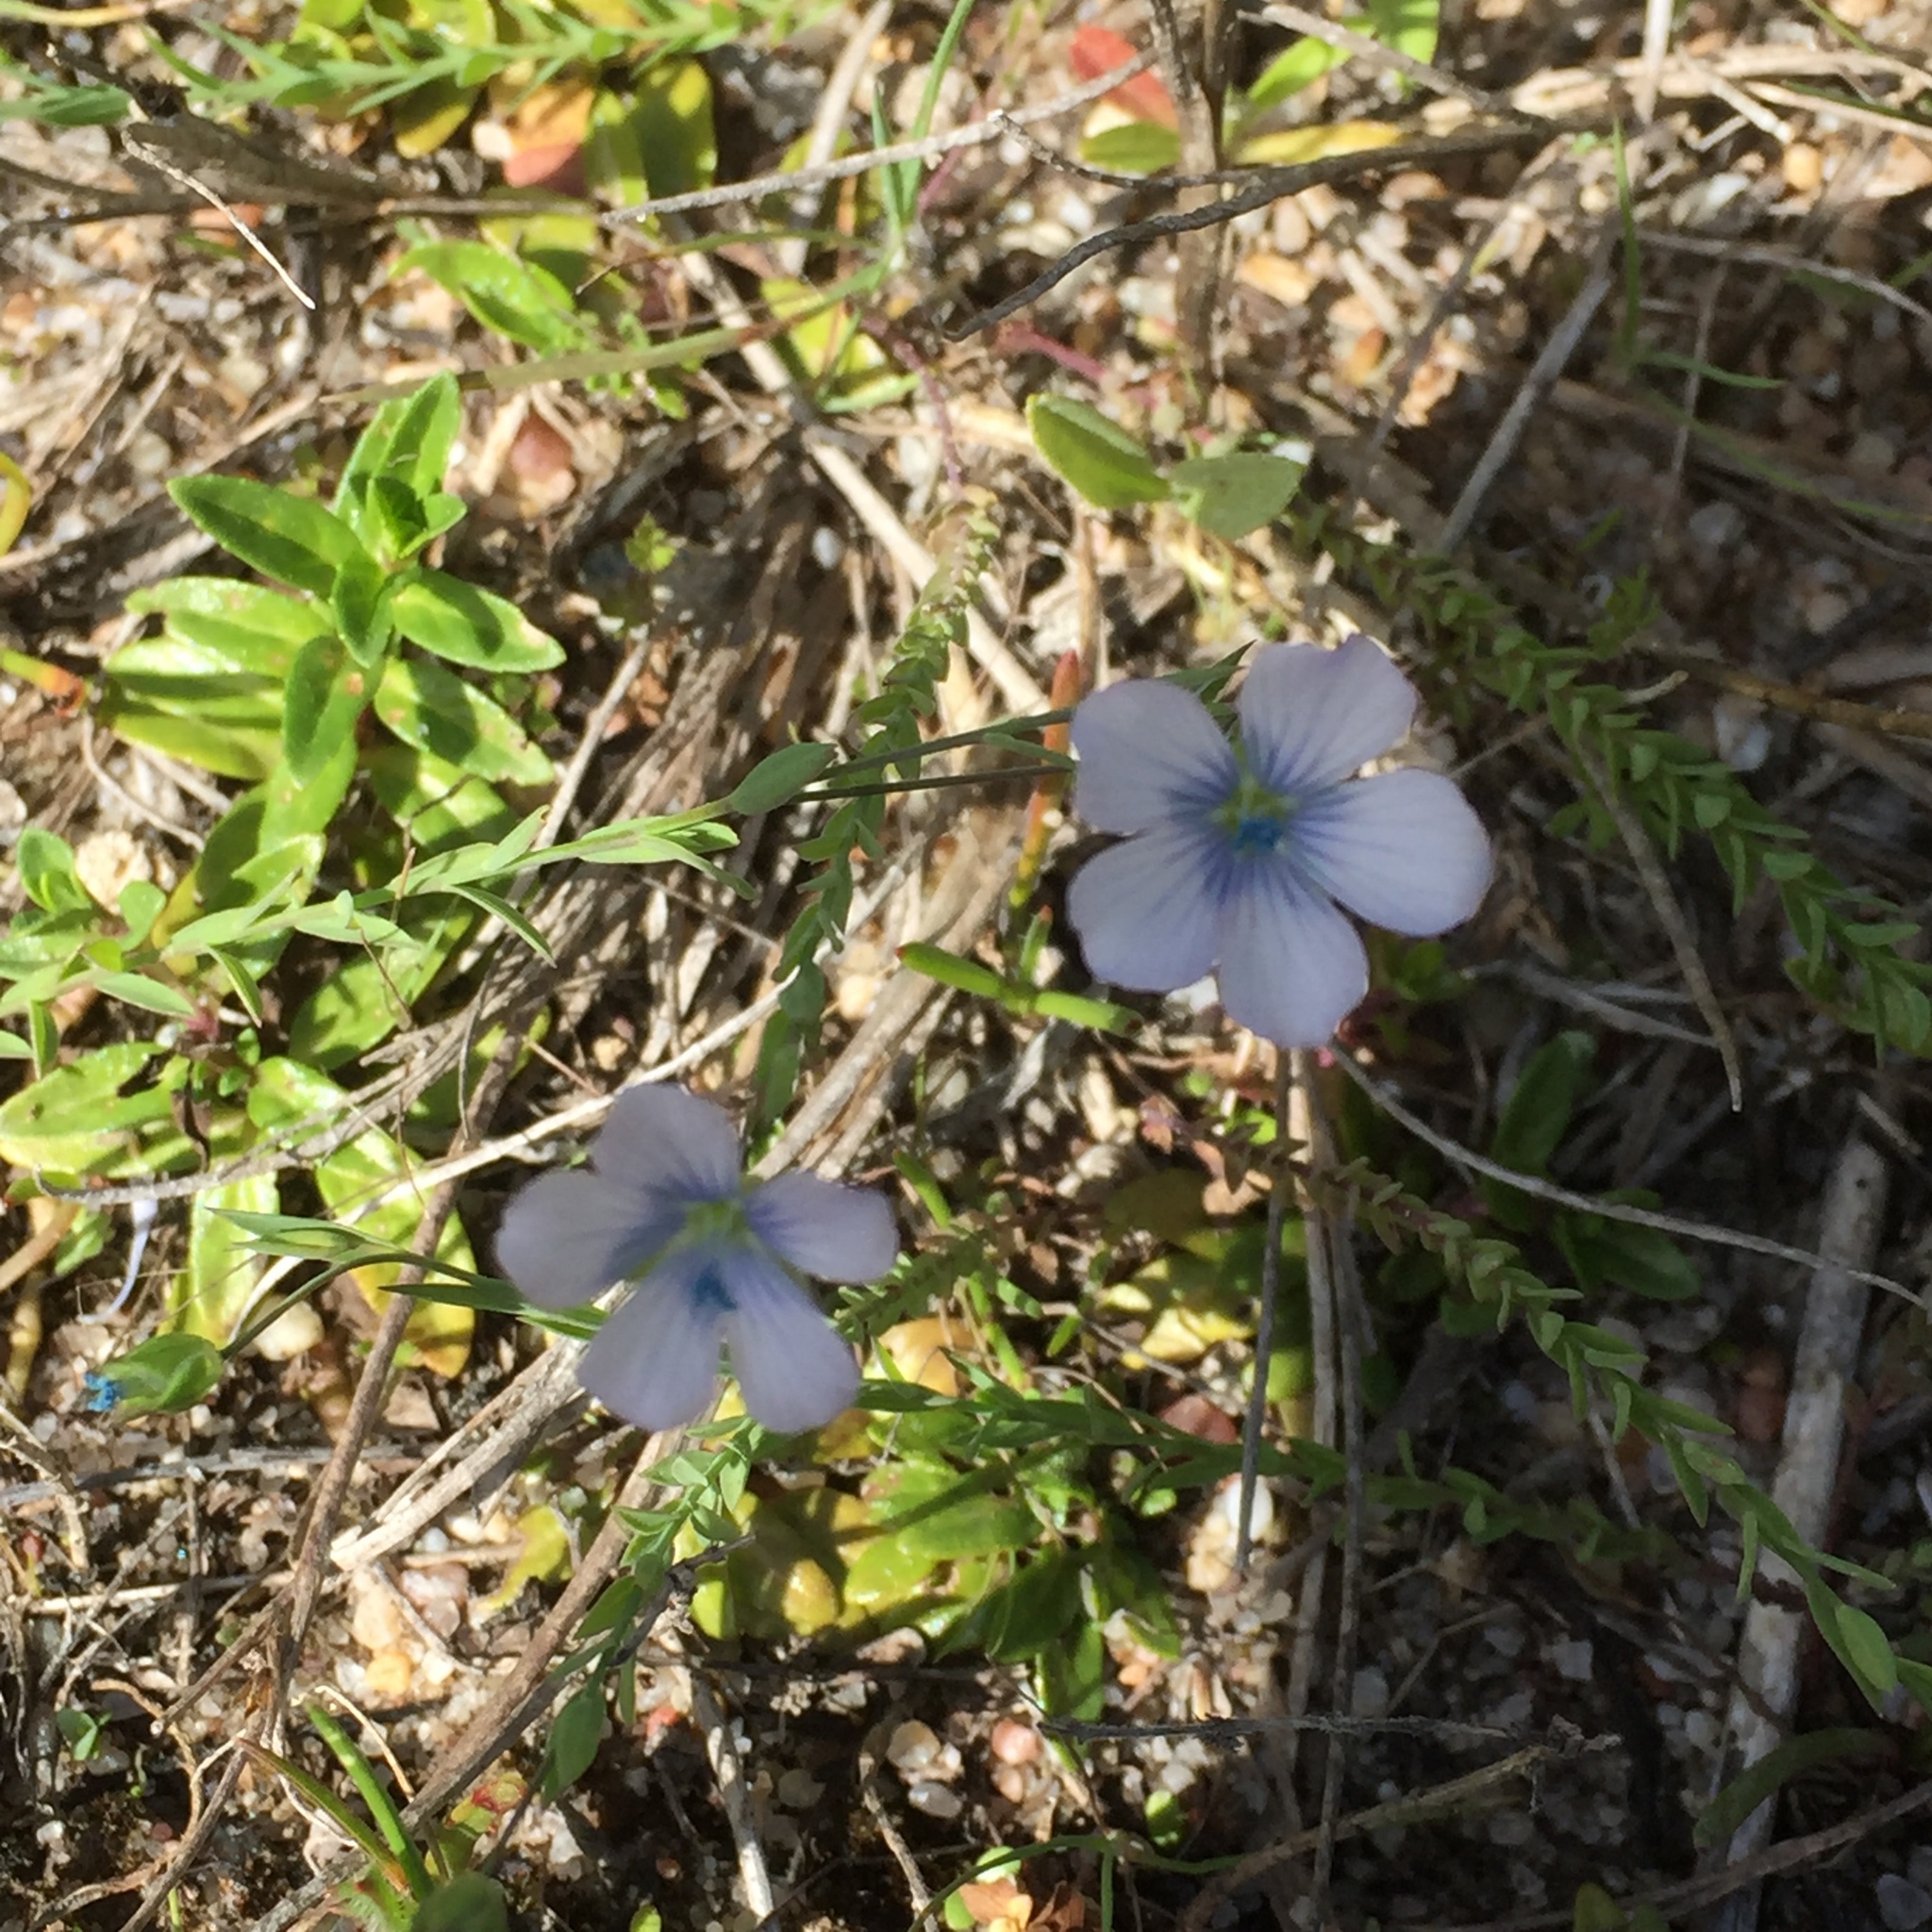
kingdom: Plantae
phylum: Tracheophyta
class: Magnoliopsida
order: Malpighiales
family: Linaceae
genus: Linum
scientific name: Linum bienne
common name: Pale flax
